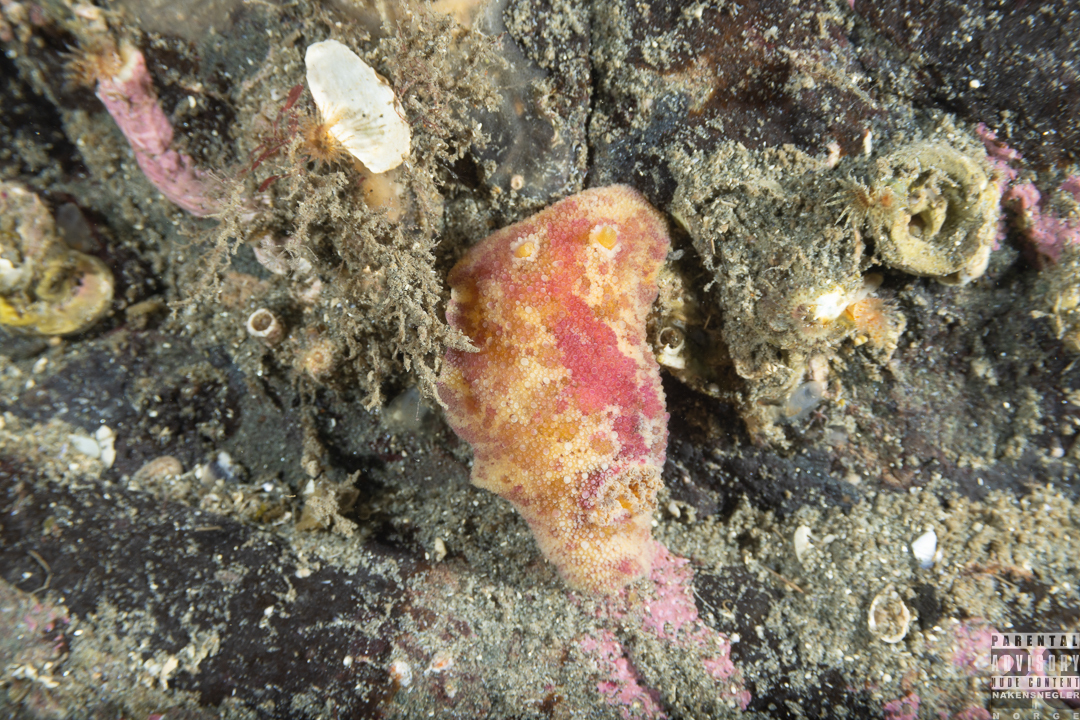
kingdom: Animalia
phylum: Mollusca
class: Gastropoda
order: Nudibranchia
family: Dorididae
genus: Doris
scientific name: Doris pseudoargus
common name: Sea lemon
